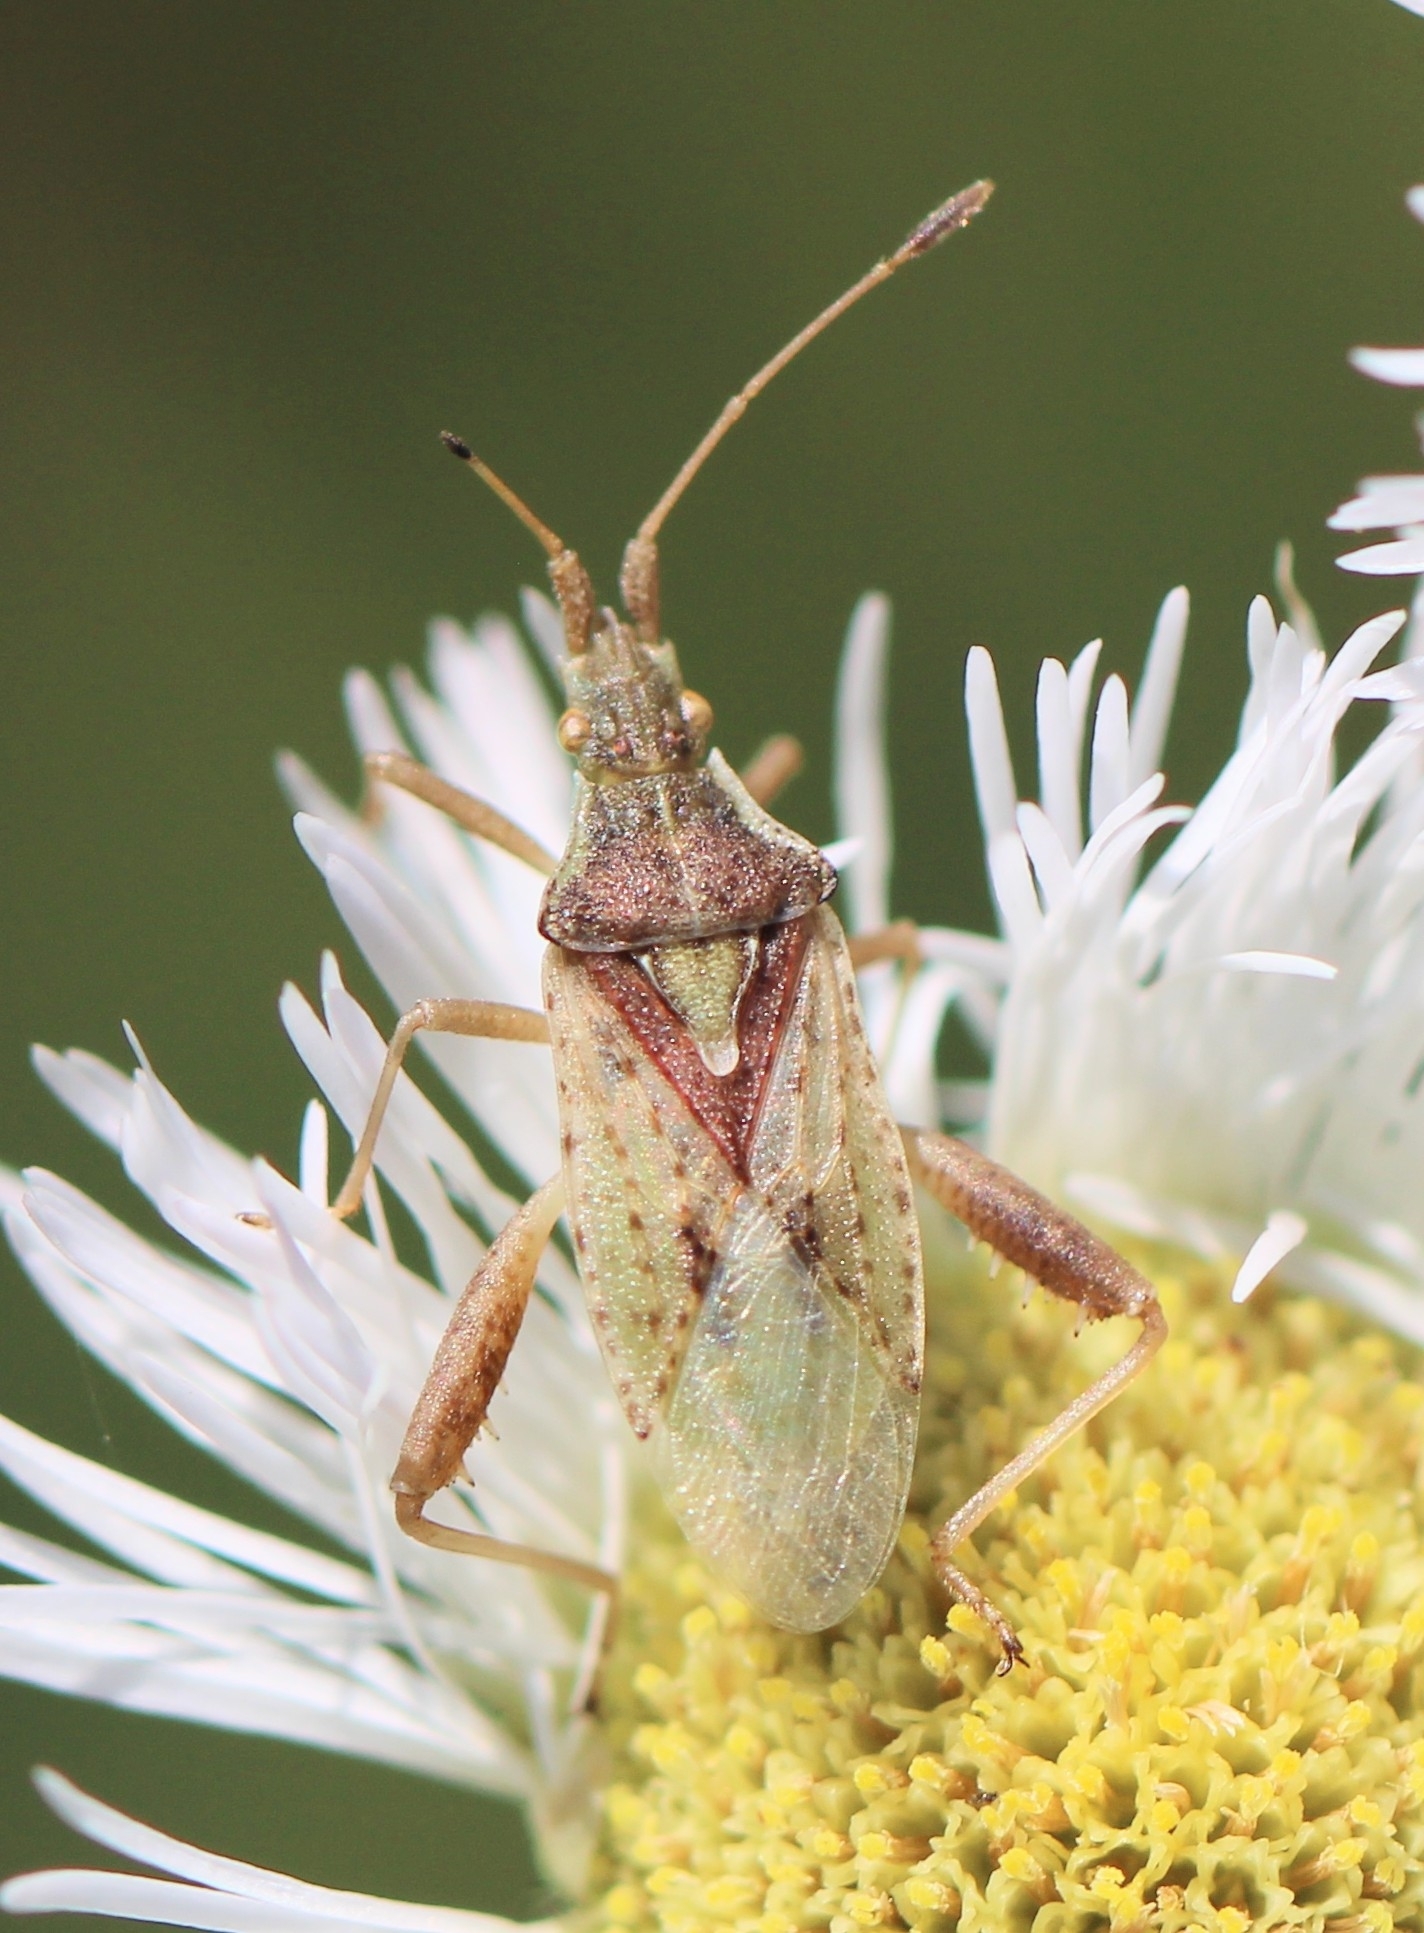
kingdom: Animalia
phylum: Arthropoda
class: Insecta
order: Hemiptera
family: Rhopalidae
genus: Harmostes
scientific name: Harmostes reflexulus
